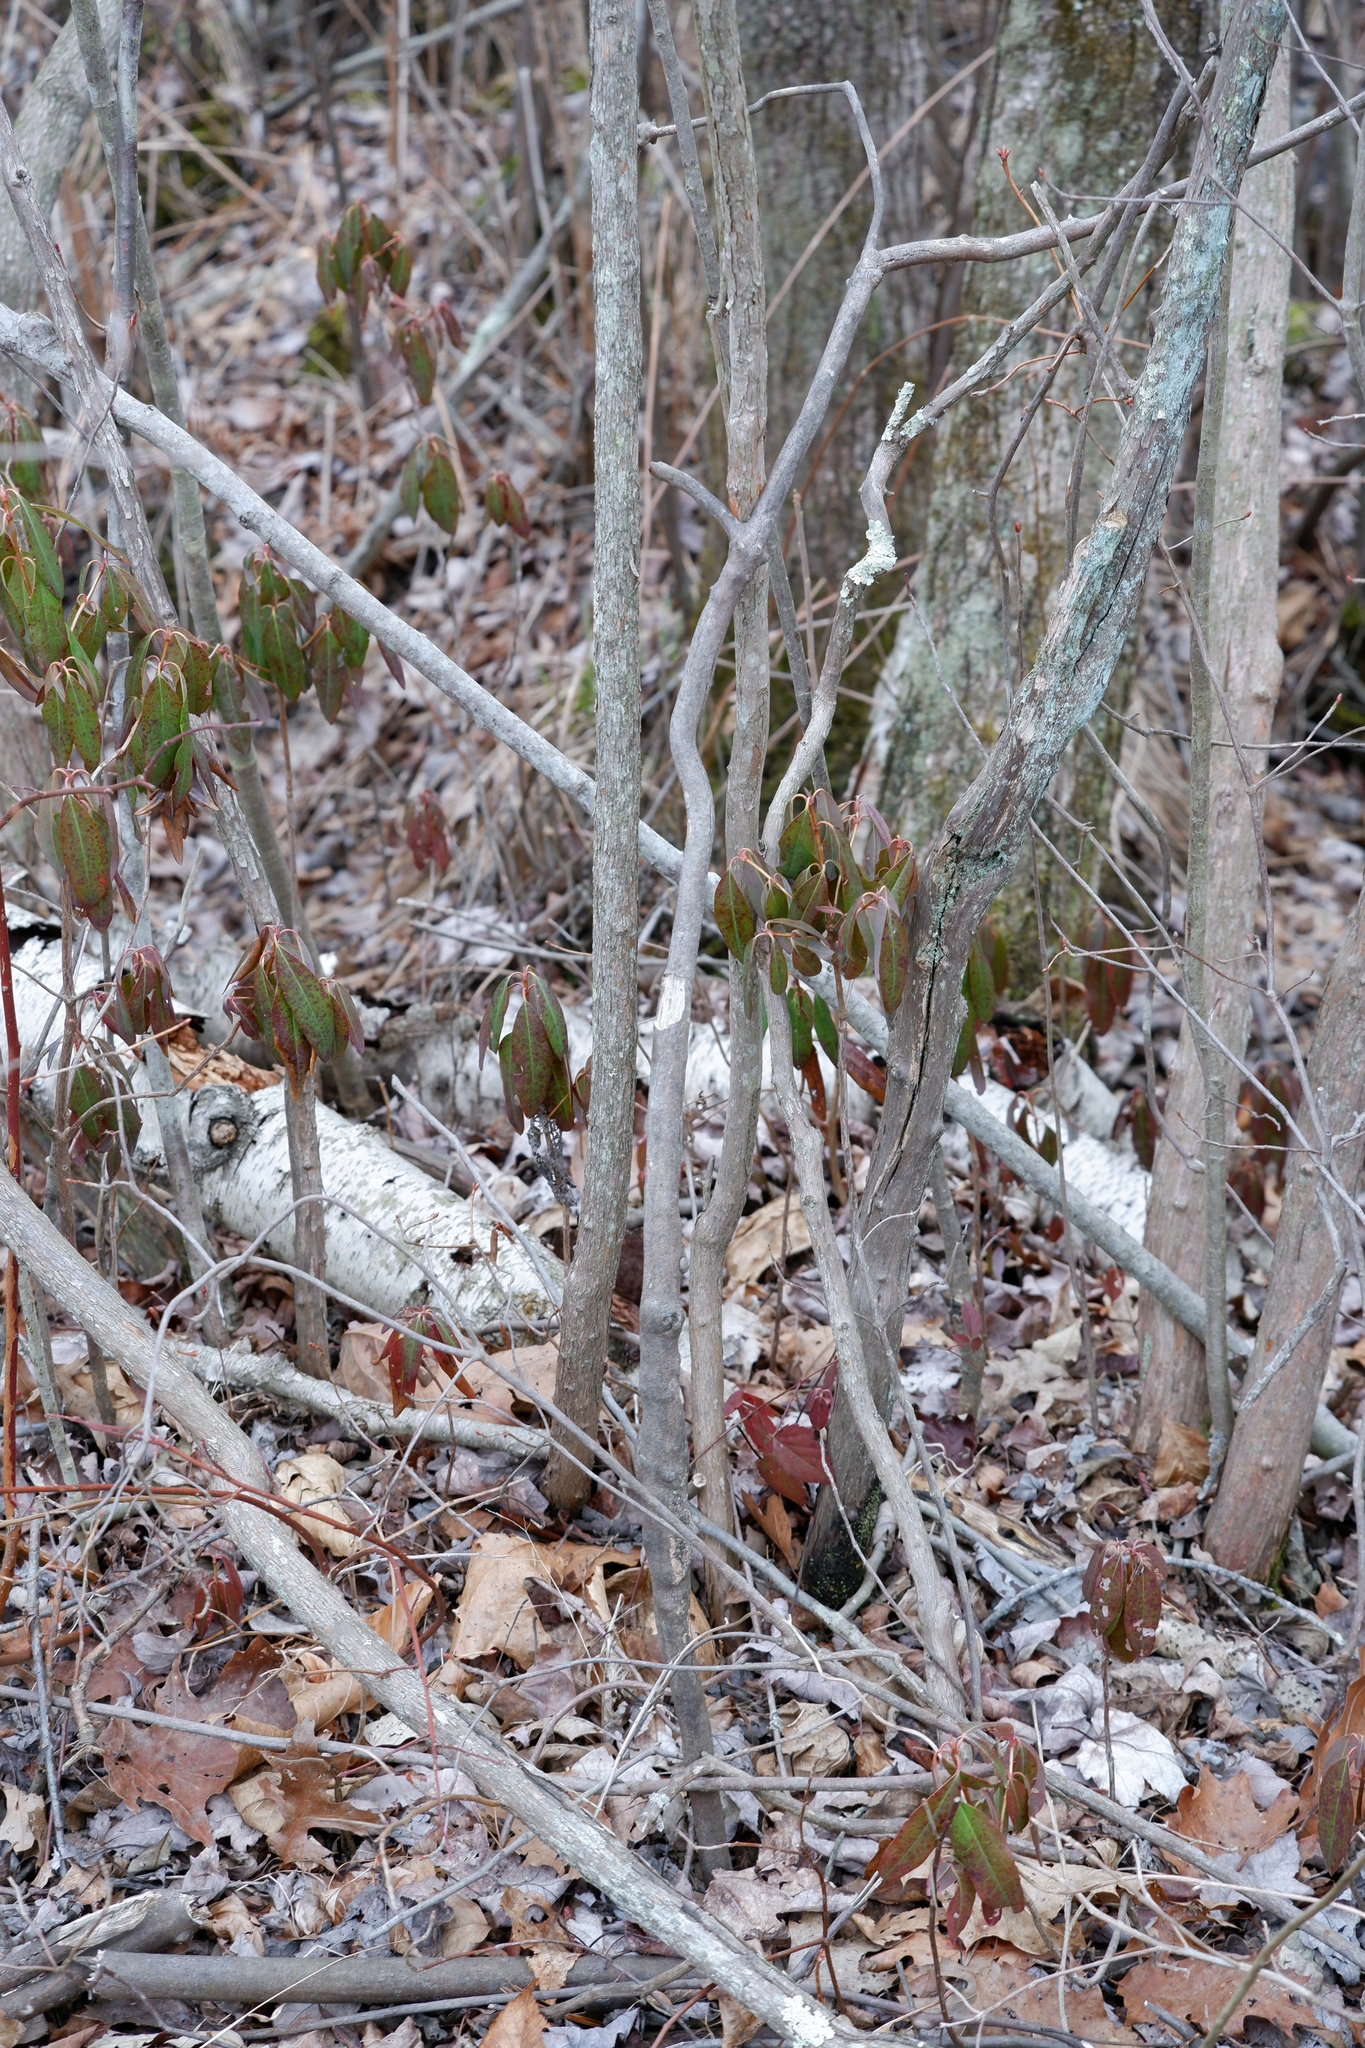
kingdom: Plantae
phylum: Tracheophyta
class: Magnoliopsida
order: Ericales
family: Ericaceae
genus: Kalmia
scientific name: Kalmia angustifolia
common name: Sheep-laurel
